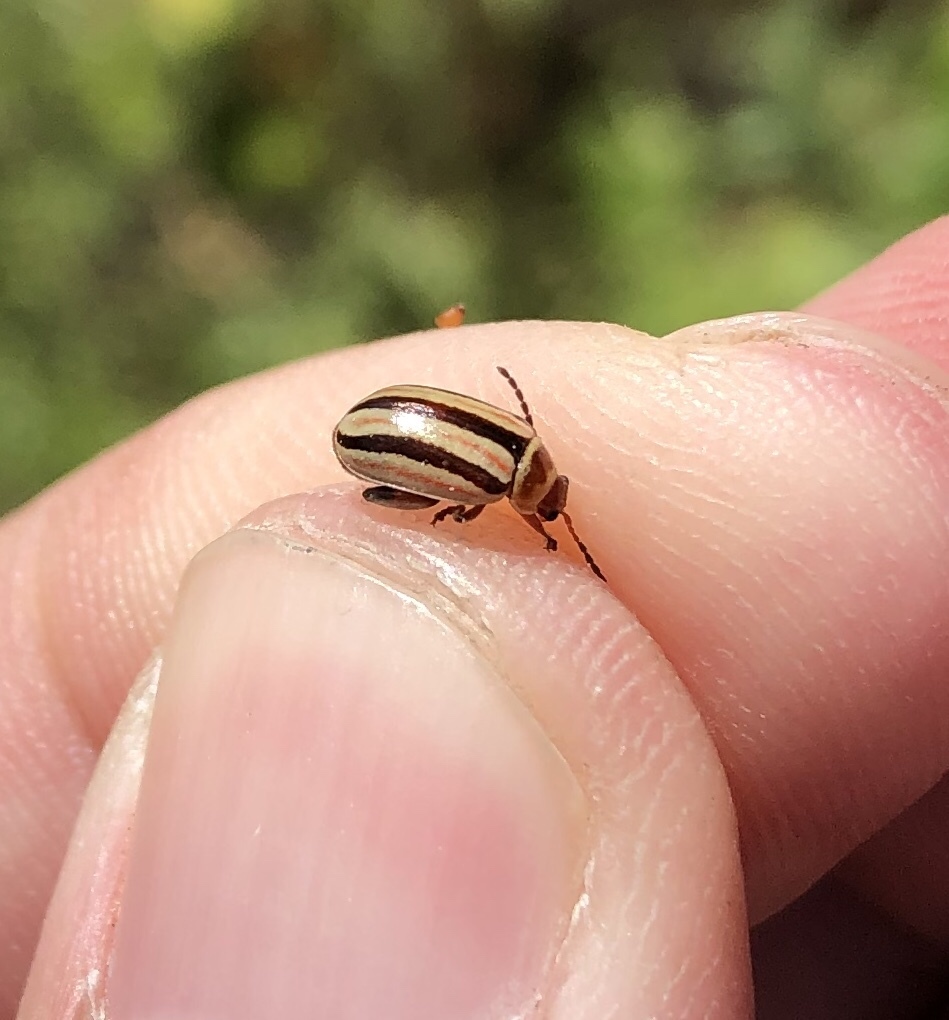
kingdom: Animalia
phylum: Arthropoda
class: Insecta
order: Coleoptera
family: Chrysomelidae
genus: Kuschelina
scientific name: Kuschelina miniata
